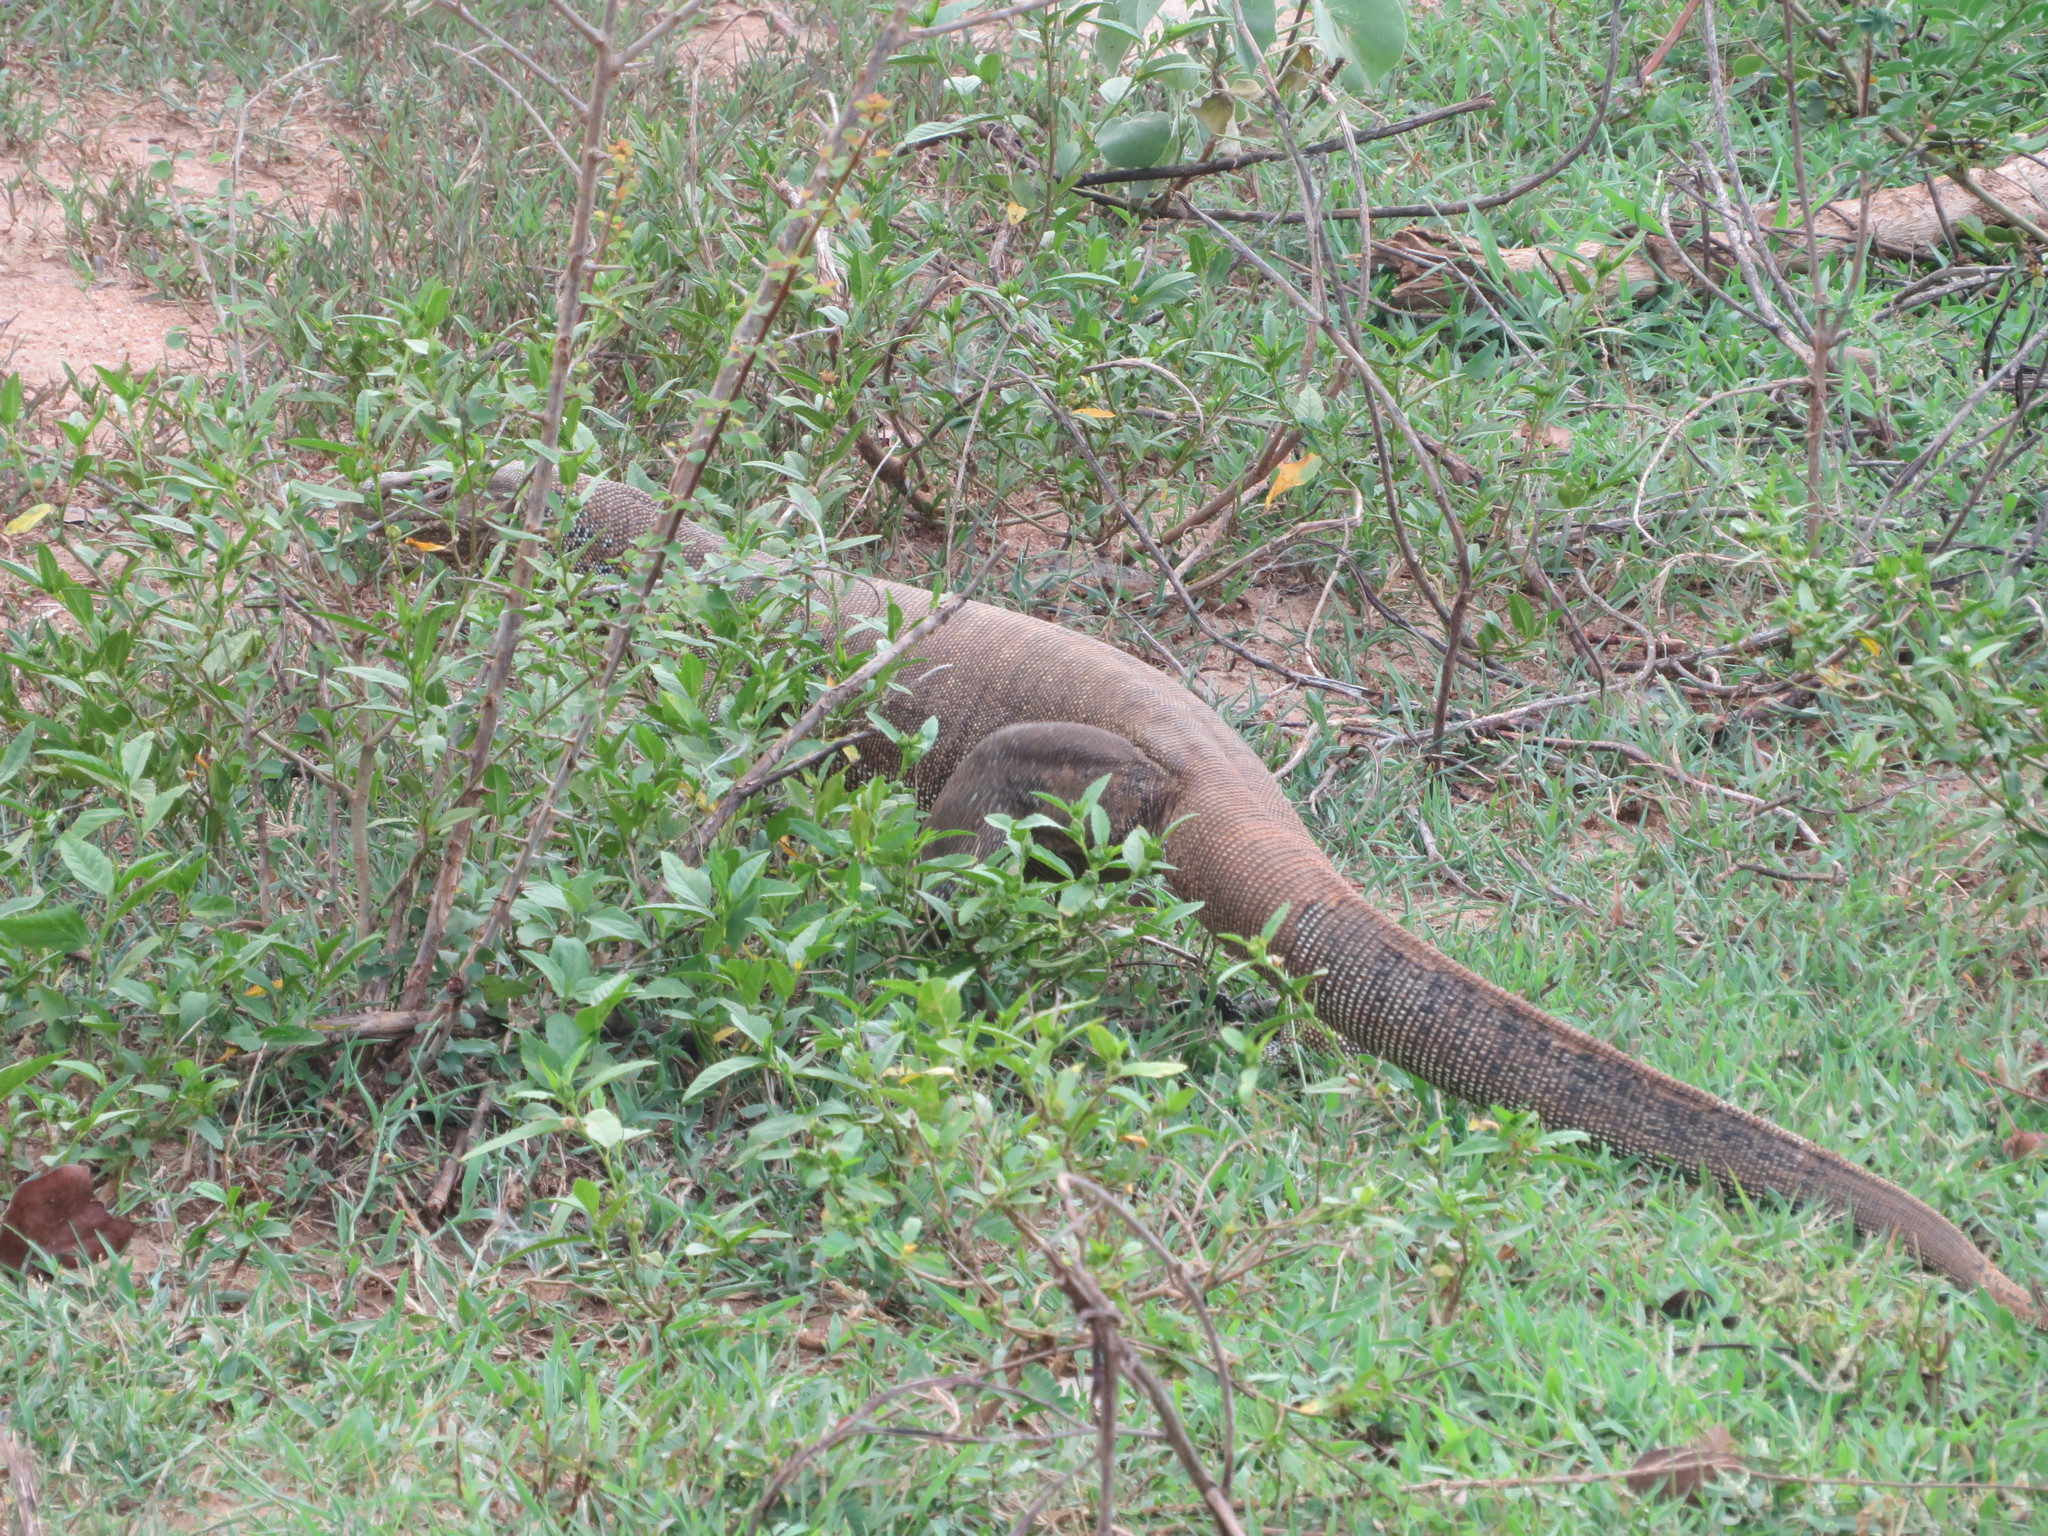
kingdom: Animalia
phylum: Chordata
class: Squamata
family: Varanidae
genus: Varanus
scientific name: Varanus bengalensis
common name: Bengal monitor
